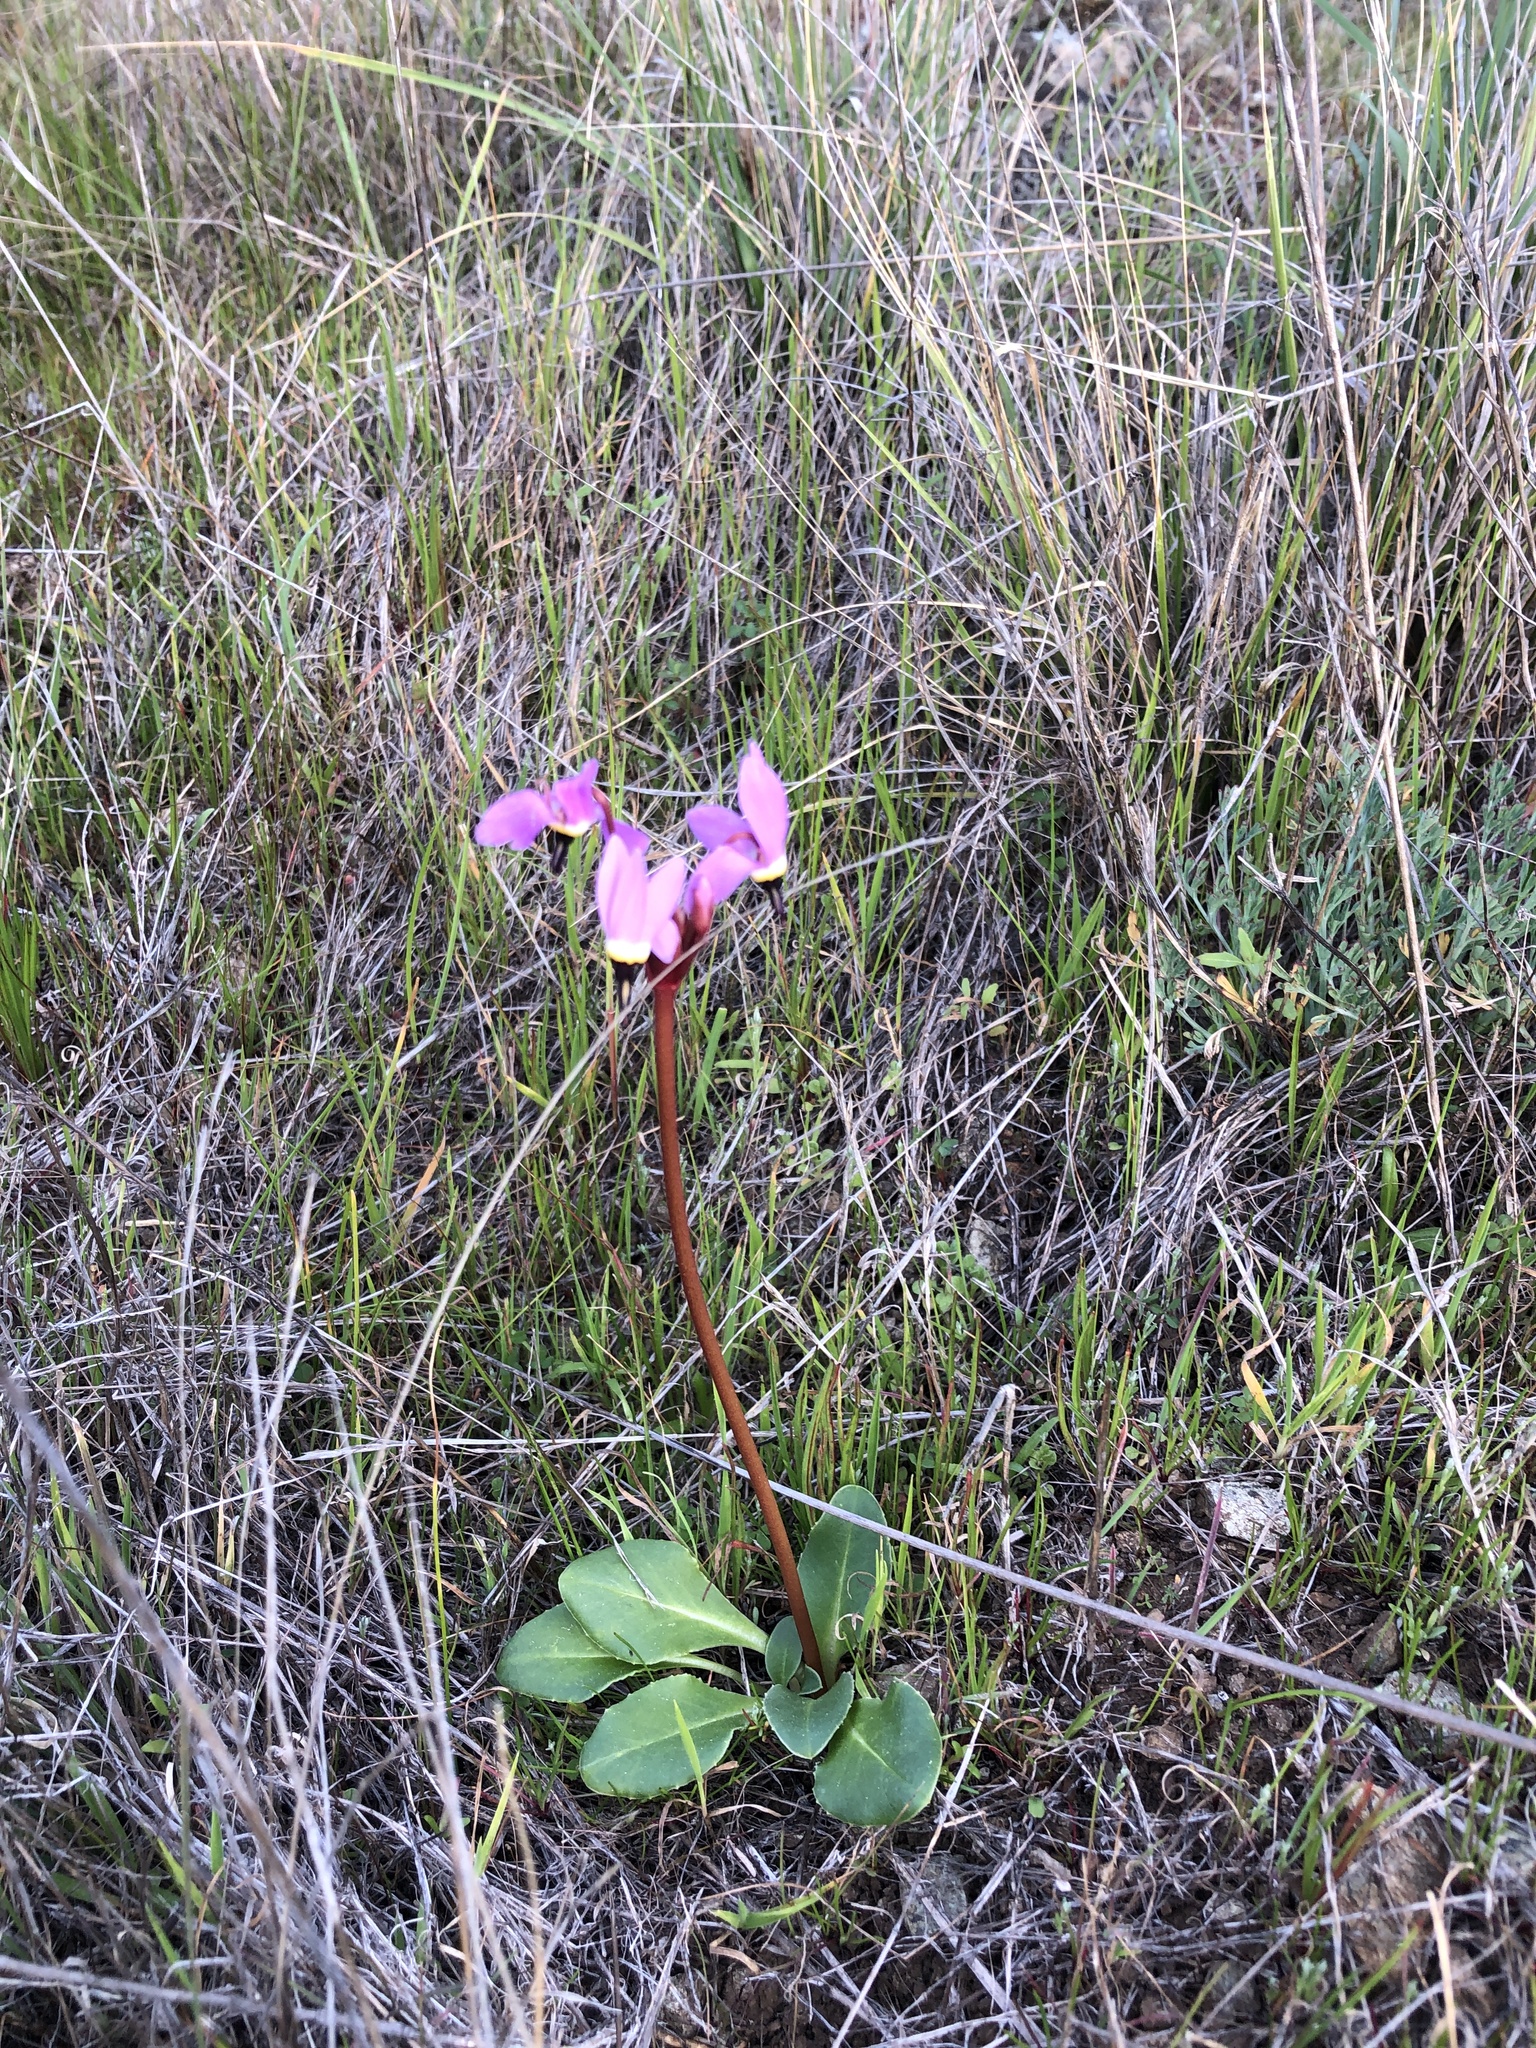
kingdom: Plantae
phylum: Tracheophyta
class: Magnoliopsida
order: Ericales
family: Primulaceae
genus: Dodecatheon
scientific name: Dodecatheon hendersonii
